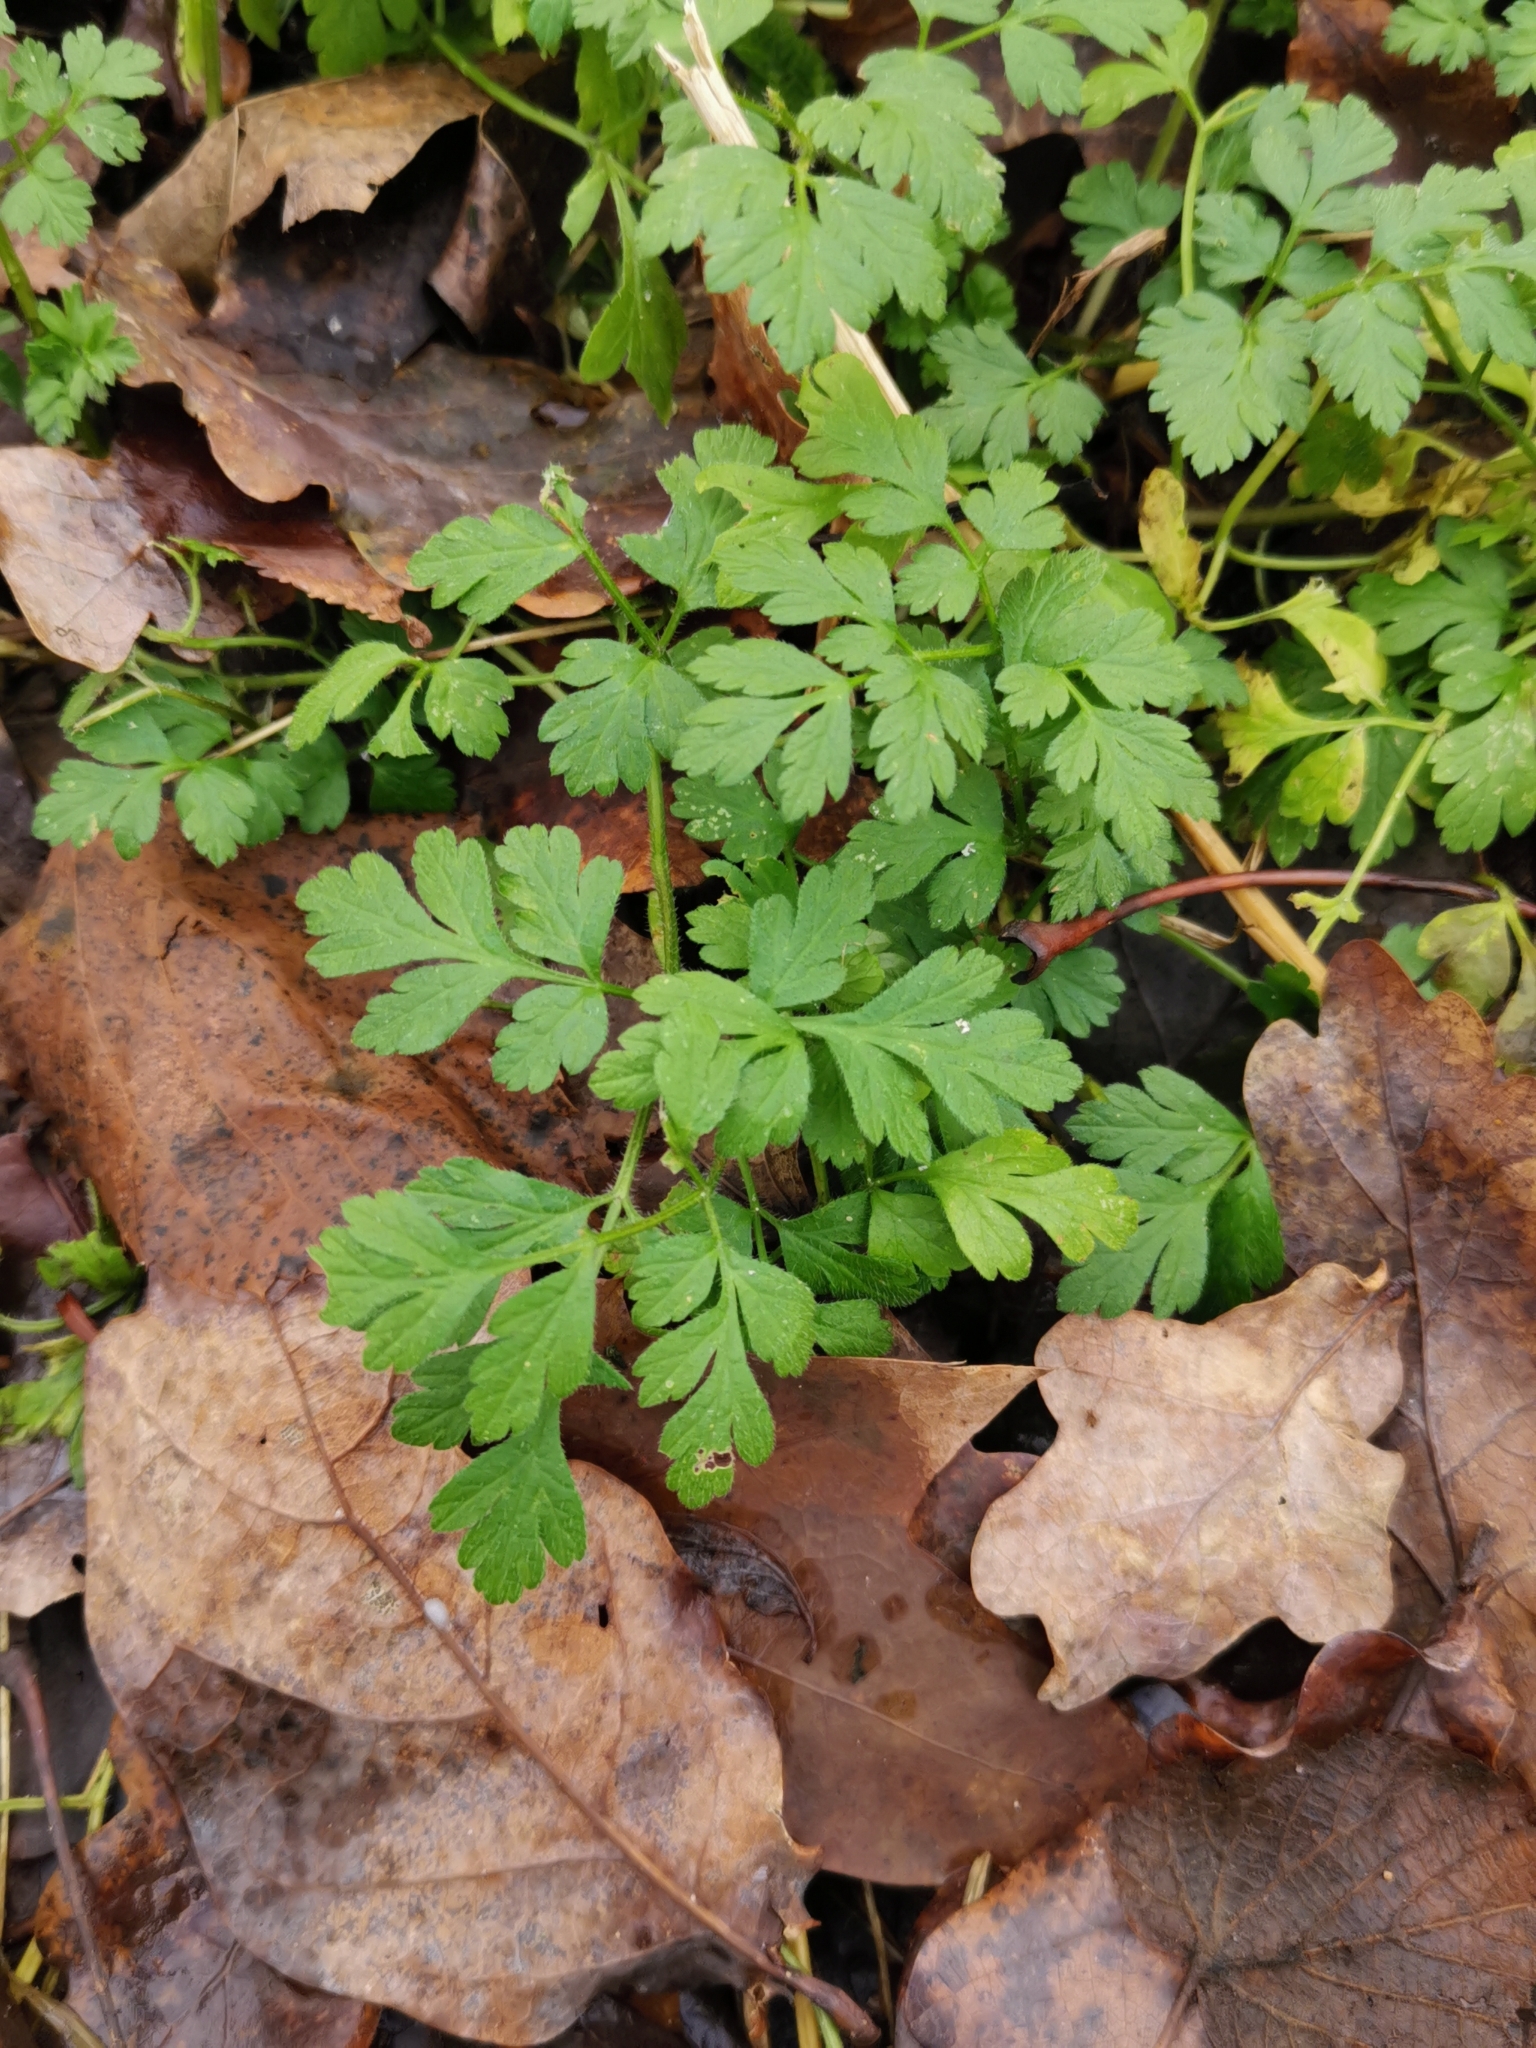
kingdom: Plantae
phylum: Tracheophyta
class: Magnoliopsida
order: Apiales
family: Apiaceae
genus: Chaerophyllum
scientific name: Chaerophyllum temulum
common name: Rough chervil
